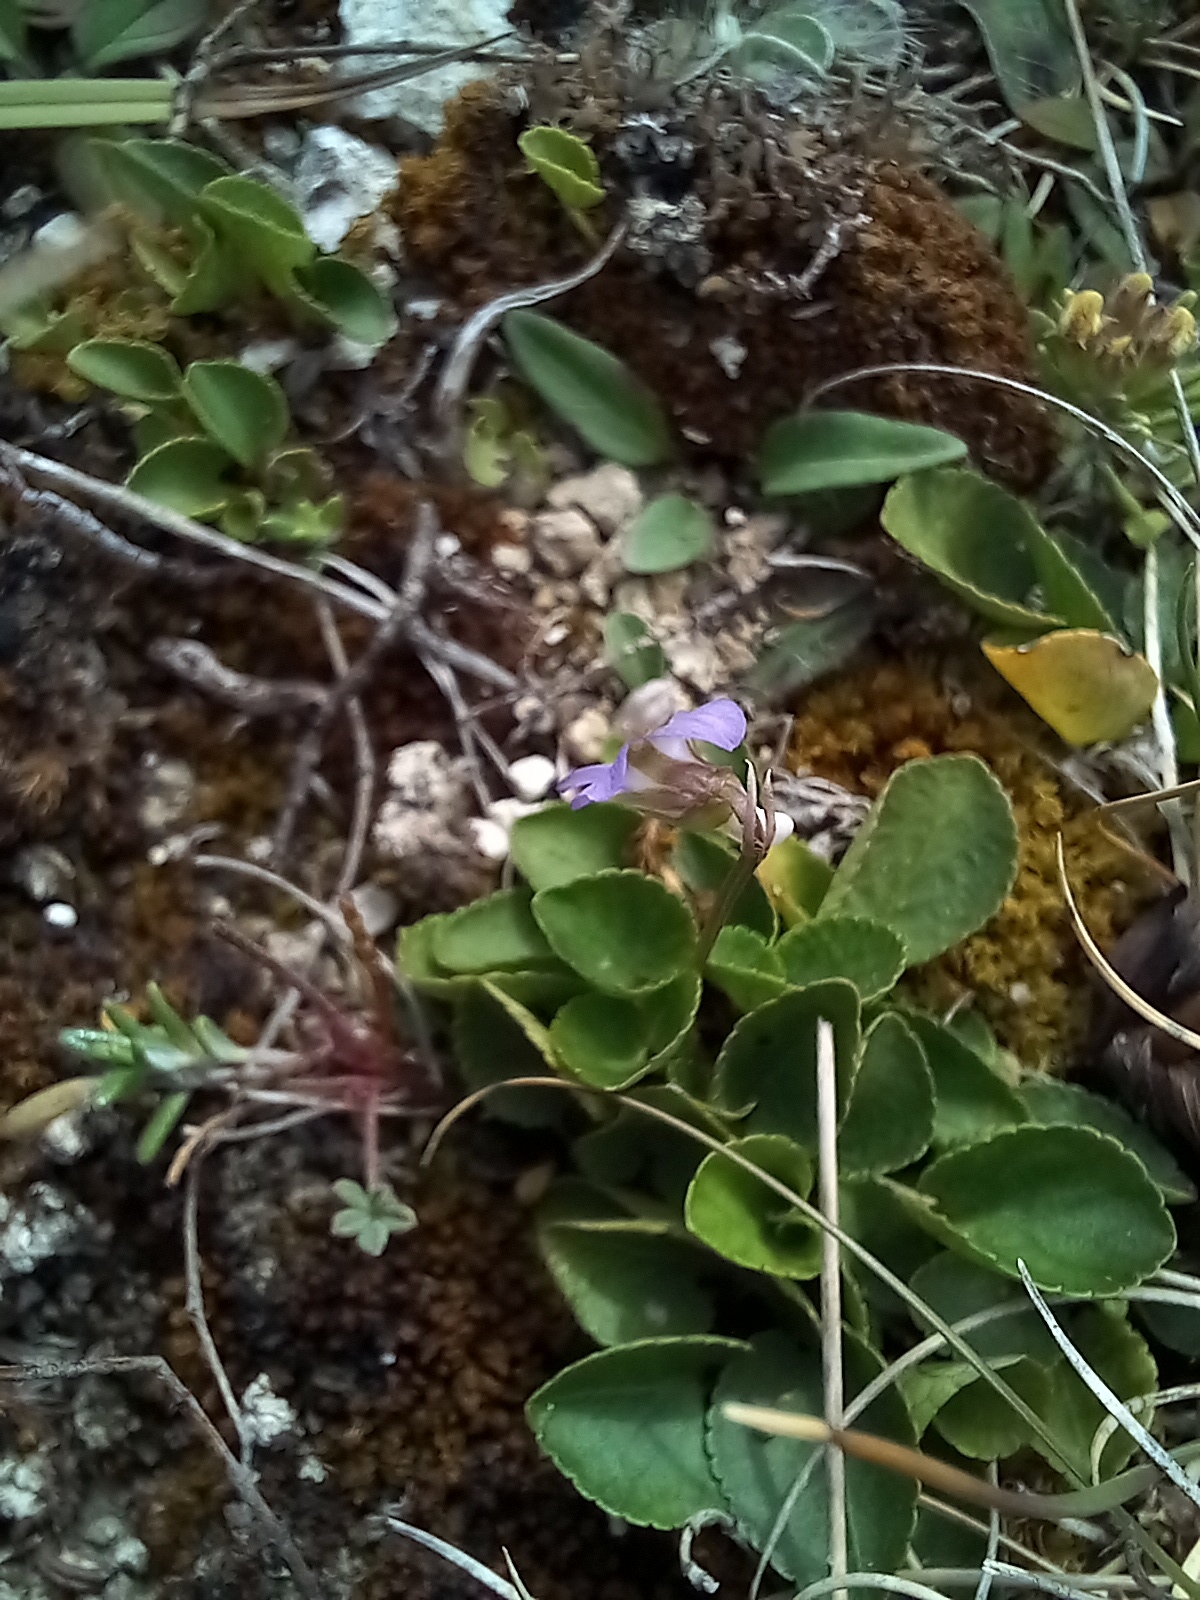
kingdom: Plantae
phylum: Tracheophyta
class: Magnoliopsida
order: Malpighiales
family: Violaceae
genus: Viola
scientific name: Viola rupestris
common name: Teesdale violet
